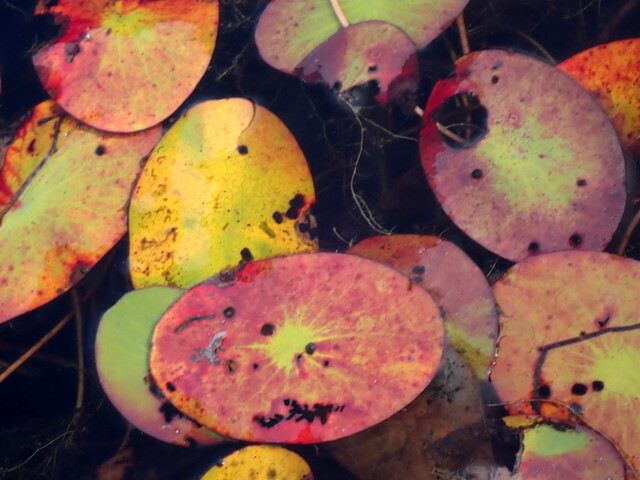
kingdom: Plantae
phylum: Tracheophyta
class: Magnoliopsida
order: Nymphaeales
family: Cabombaceae
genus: Brasenia
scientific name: Brasenia schreberi
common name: Water-shield
